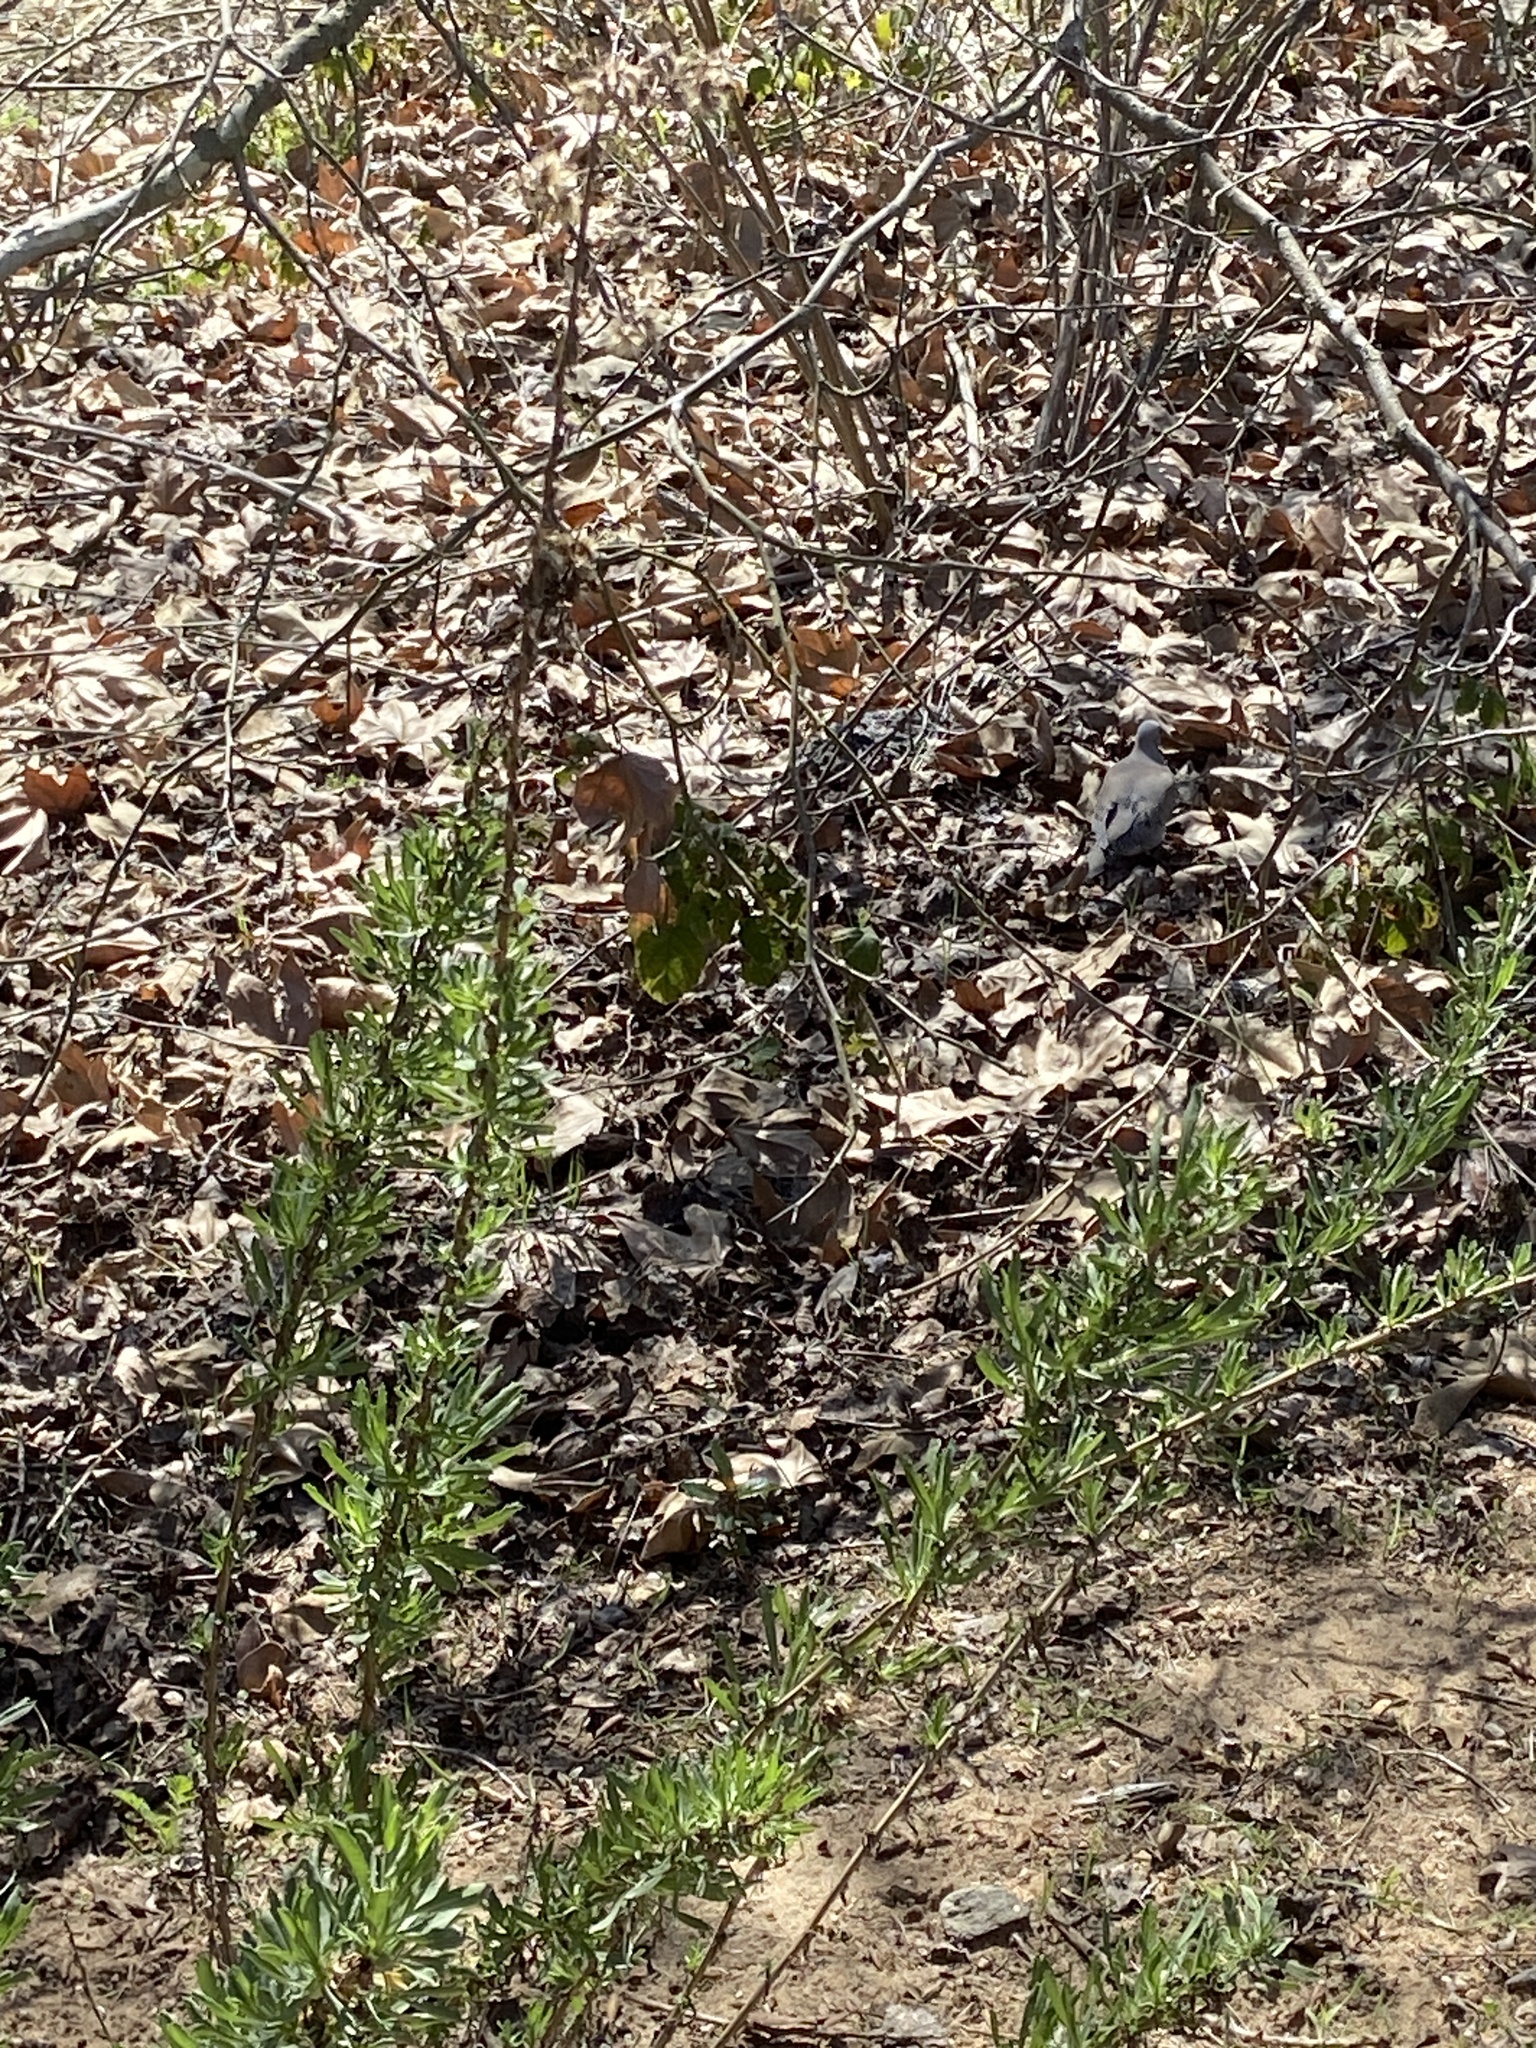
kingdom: Animalia
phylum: Chordata
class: Aves
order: Columbiformes
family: Columbidae
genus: Zenaida
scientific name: Zenaida macroura
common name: Mourning dove
